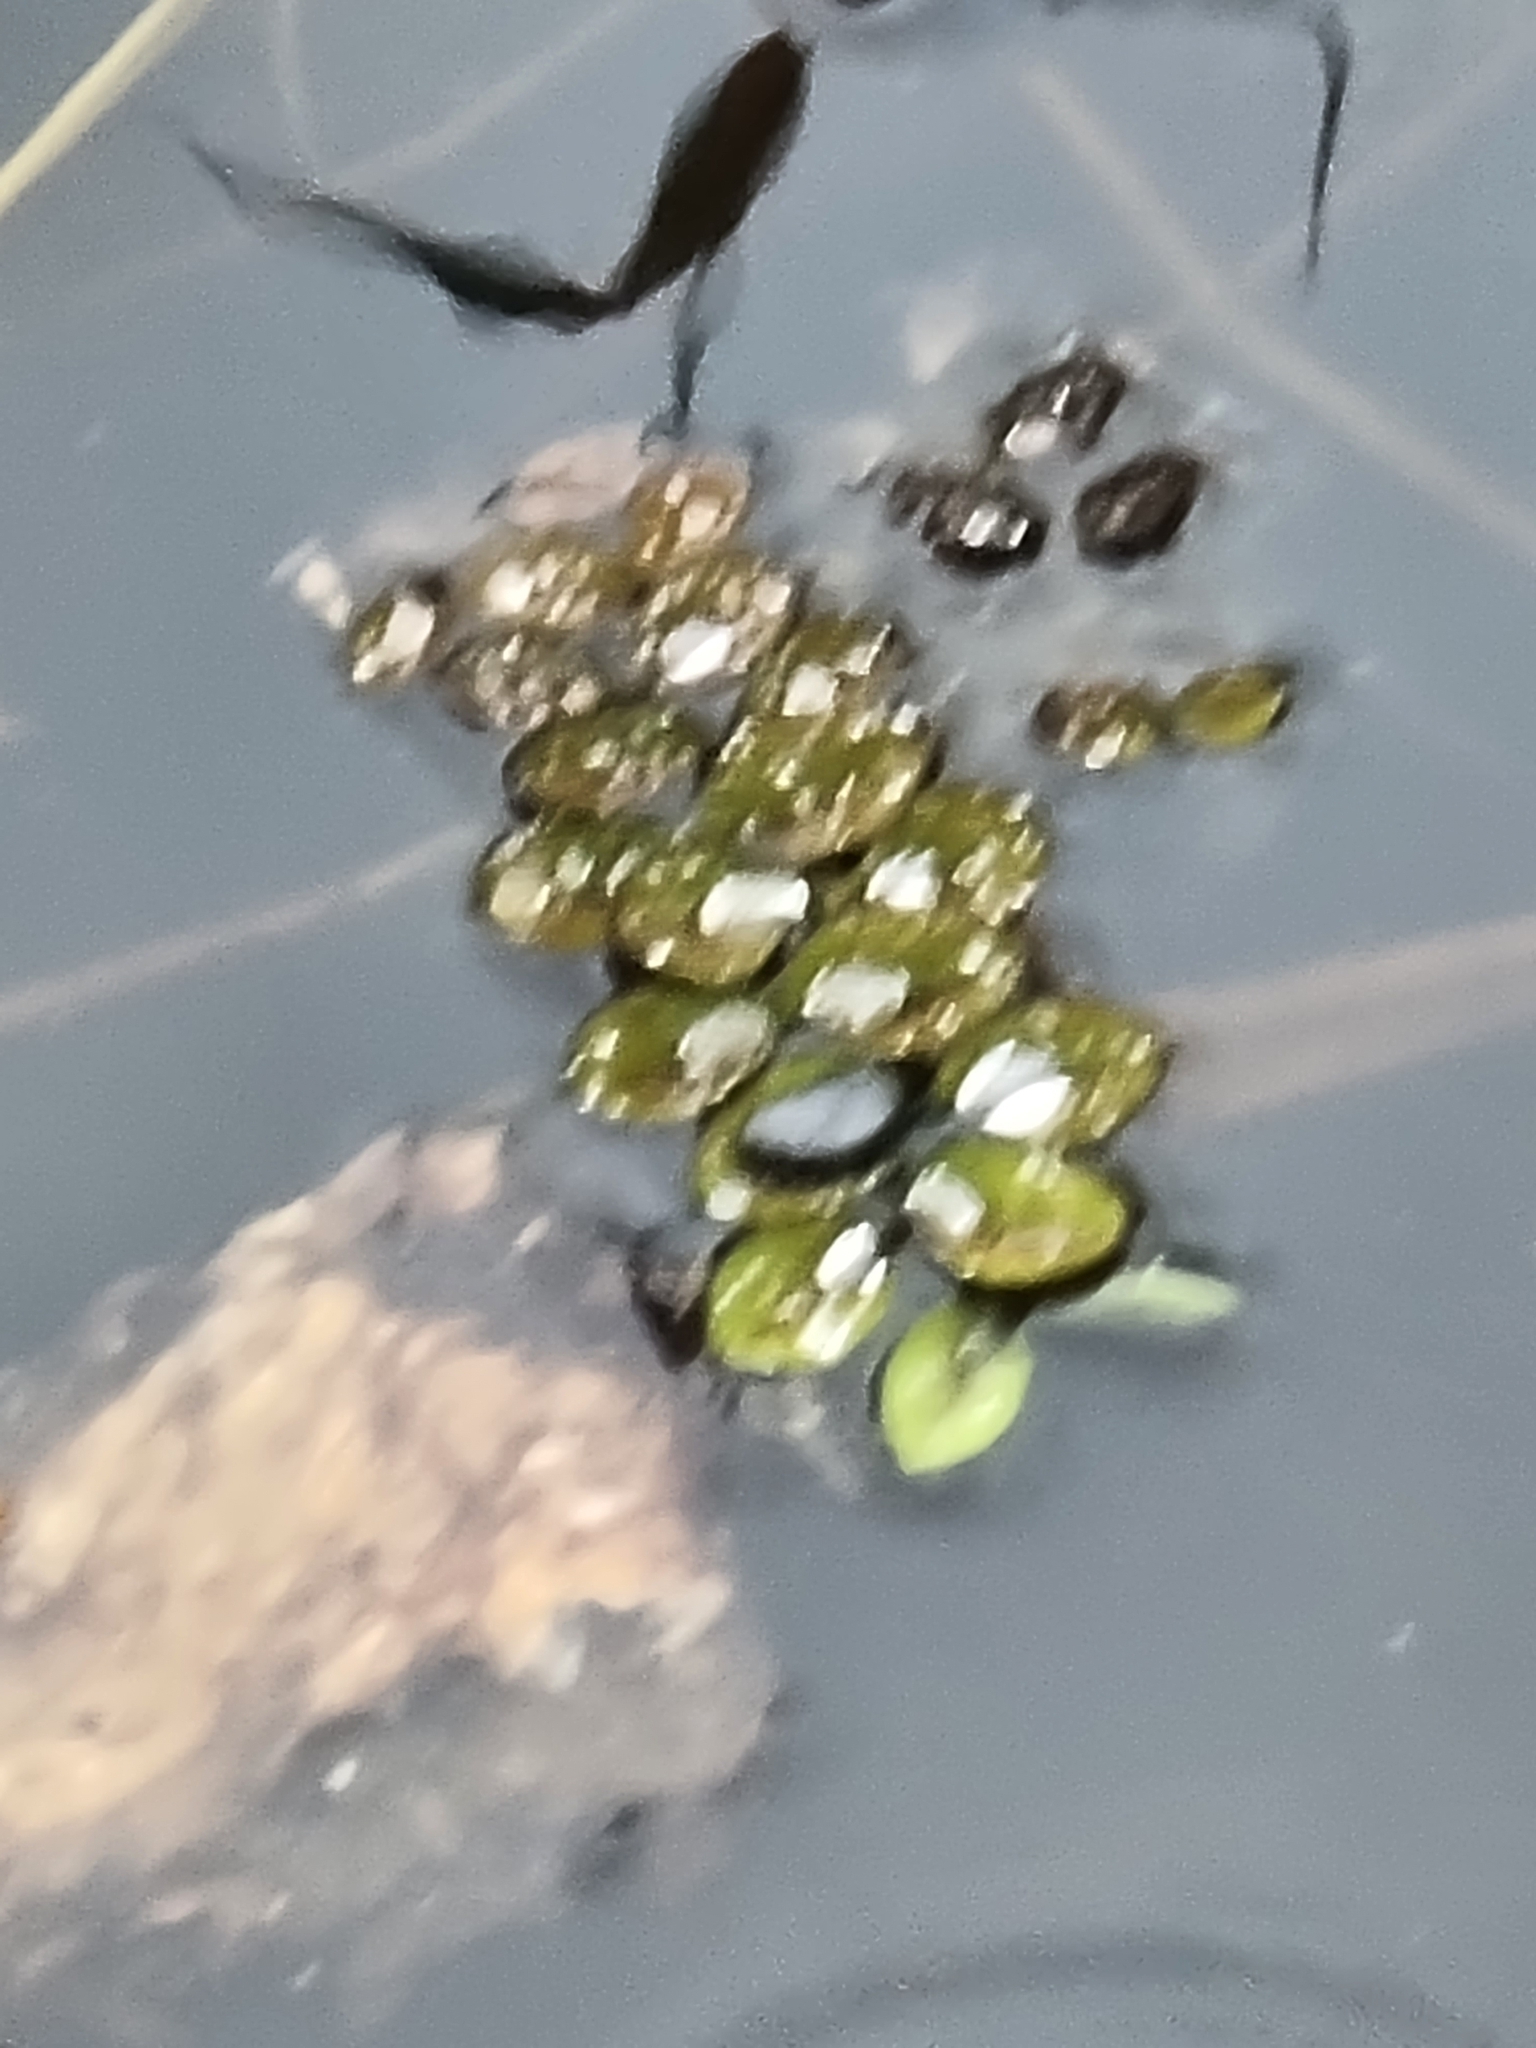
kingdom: Plantae
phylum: Tracheophyta
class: Polypodiopsida
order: Salviniales
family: Salviniaceae
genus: Salvinia
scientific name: Salvinia molesta
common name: Kariba weed
